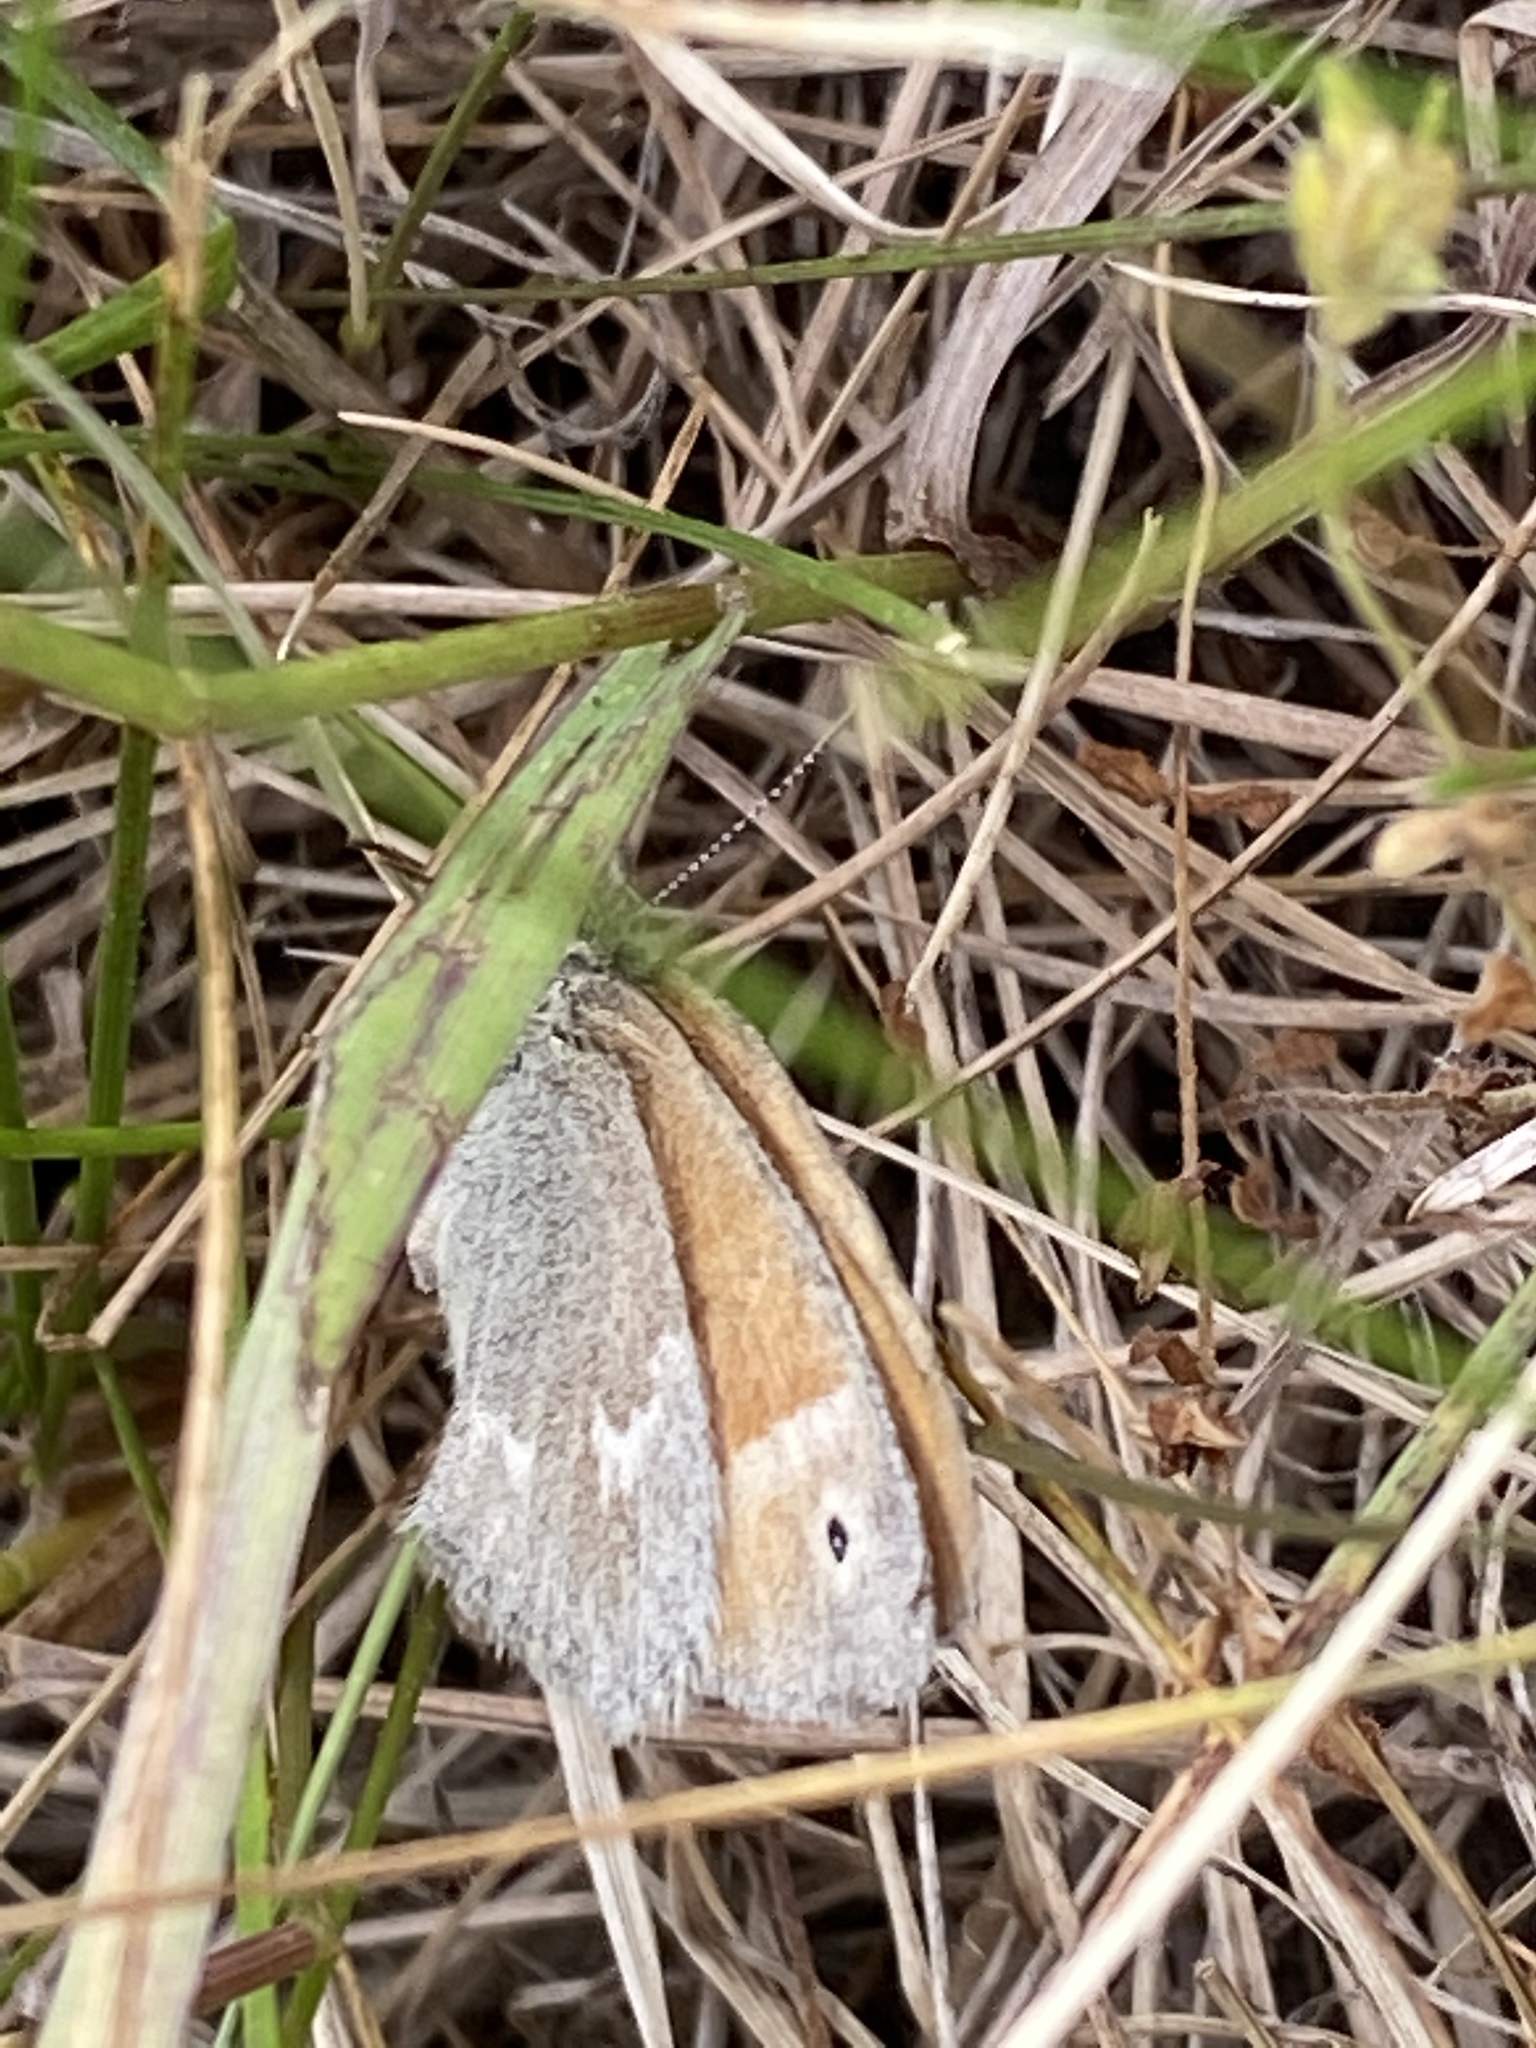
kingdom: Animalia
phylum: Arthropoda
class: Insecta
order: Lepidoptera
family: Nymphalidae
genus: Coenonympha
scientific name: Coenonympha california
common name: Common ringlet
